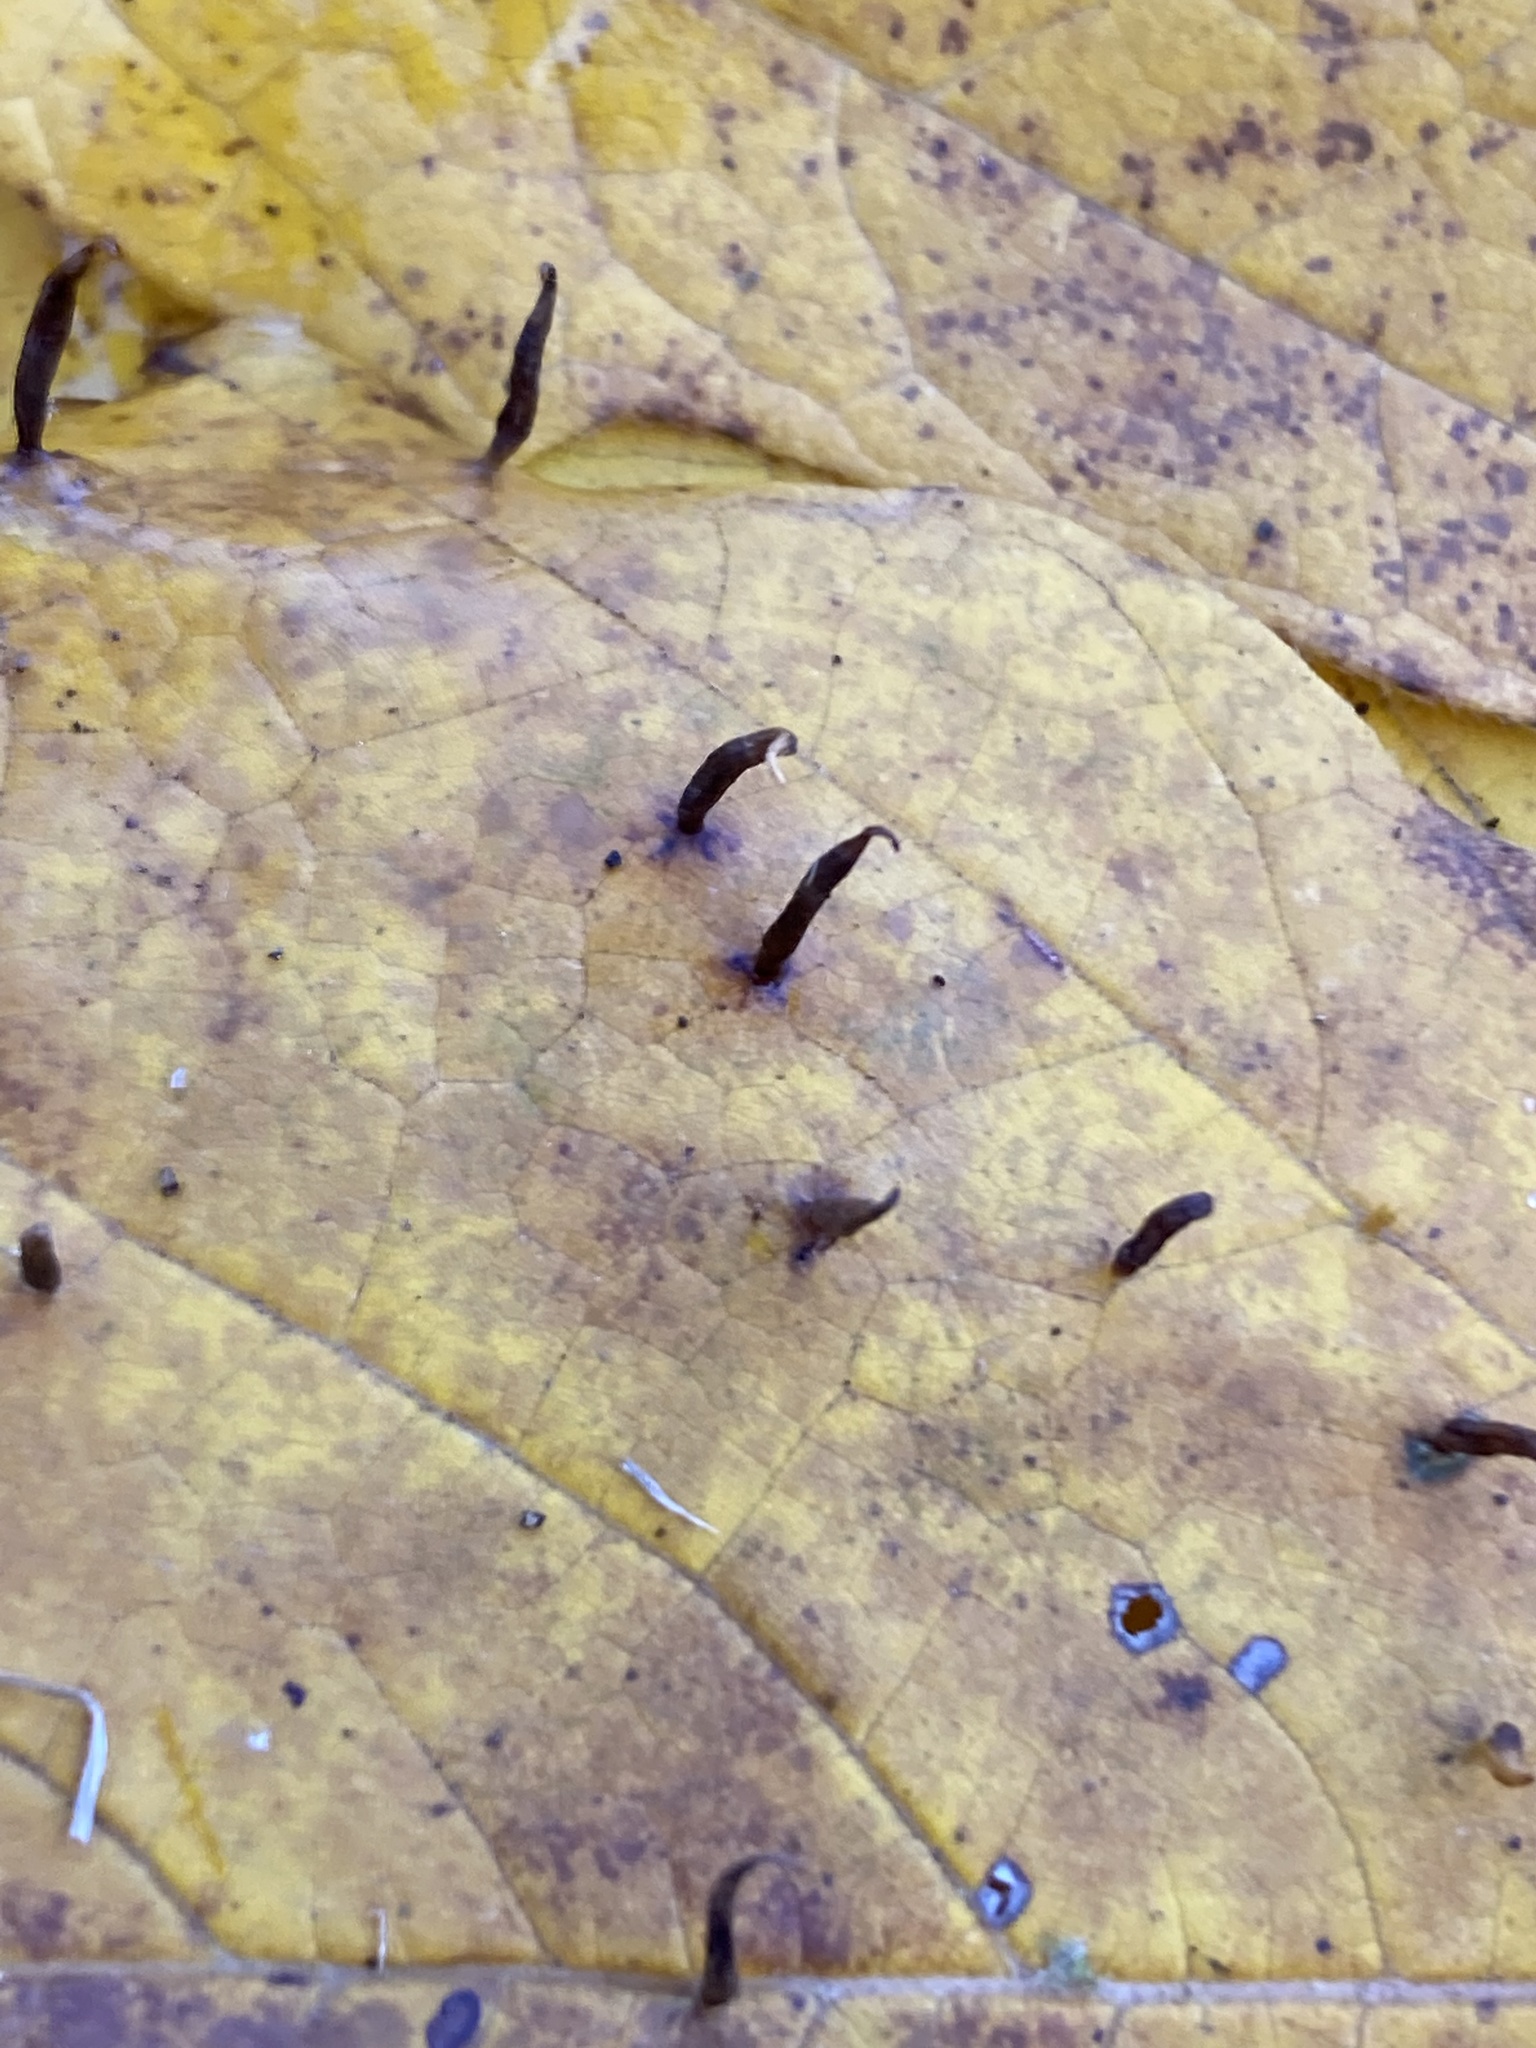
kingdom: Animalia
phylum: Arthropoda
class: Arachnida
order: Trombidiformes
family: Eriophyidae
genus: Vasates
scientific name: Vasates aceriscrumena
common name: Maple spindle gall mite
